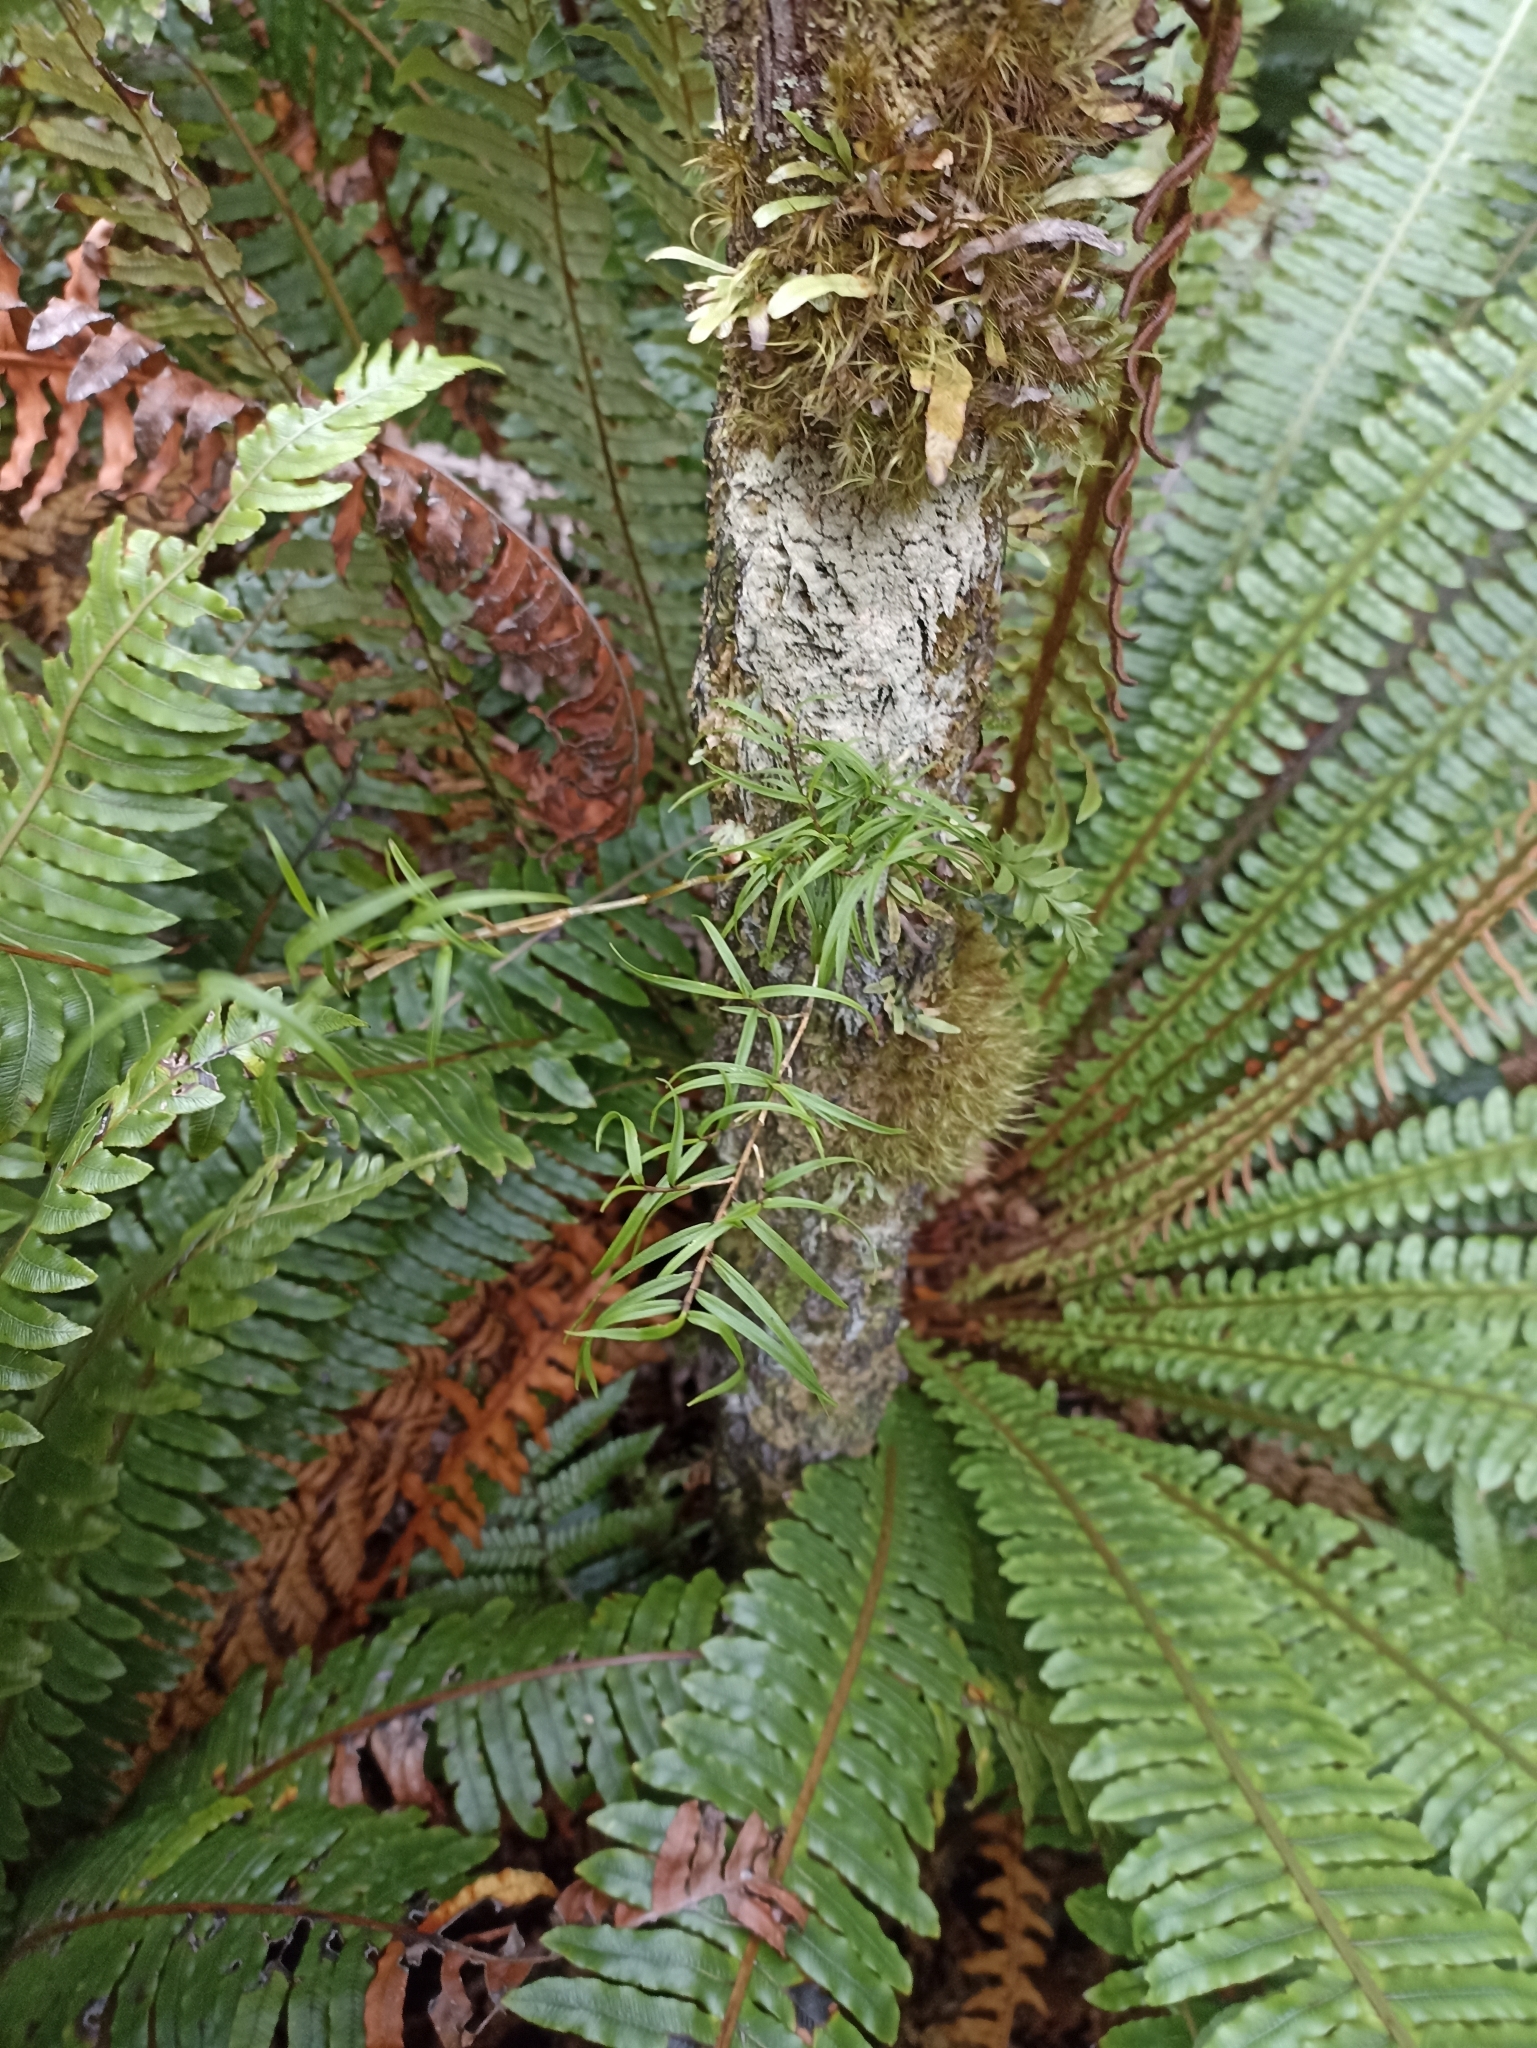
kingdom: Plantae
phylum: Tracheophyta
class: Liliopsida
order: Asparagales
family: Orchidaceae
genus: Dendrobium
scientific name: Dendrobium cunninghamii
